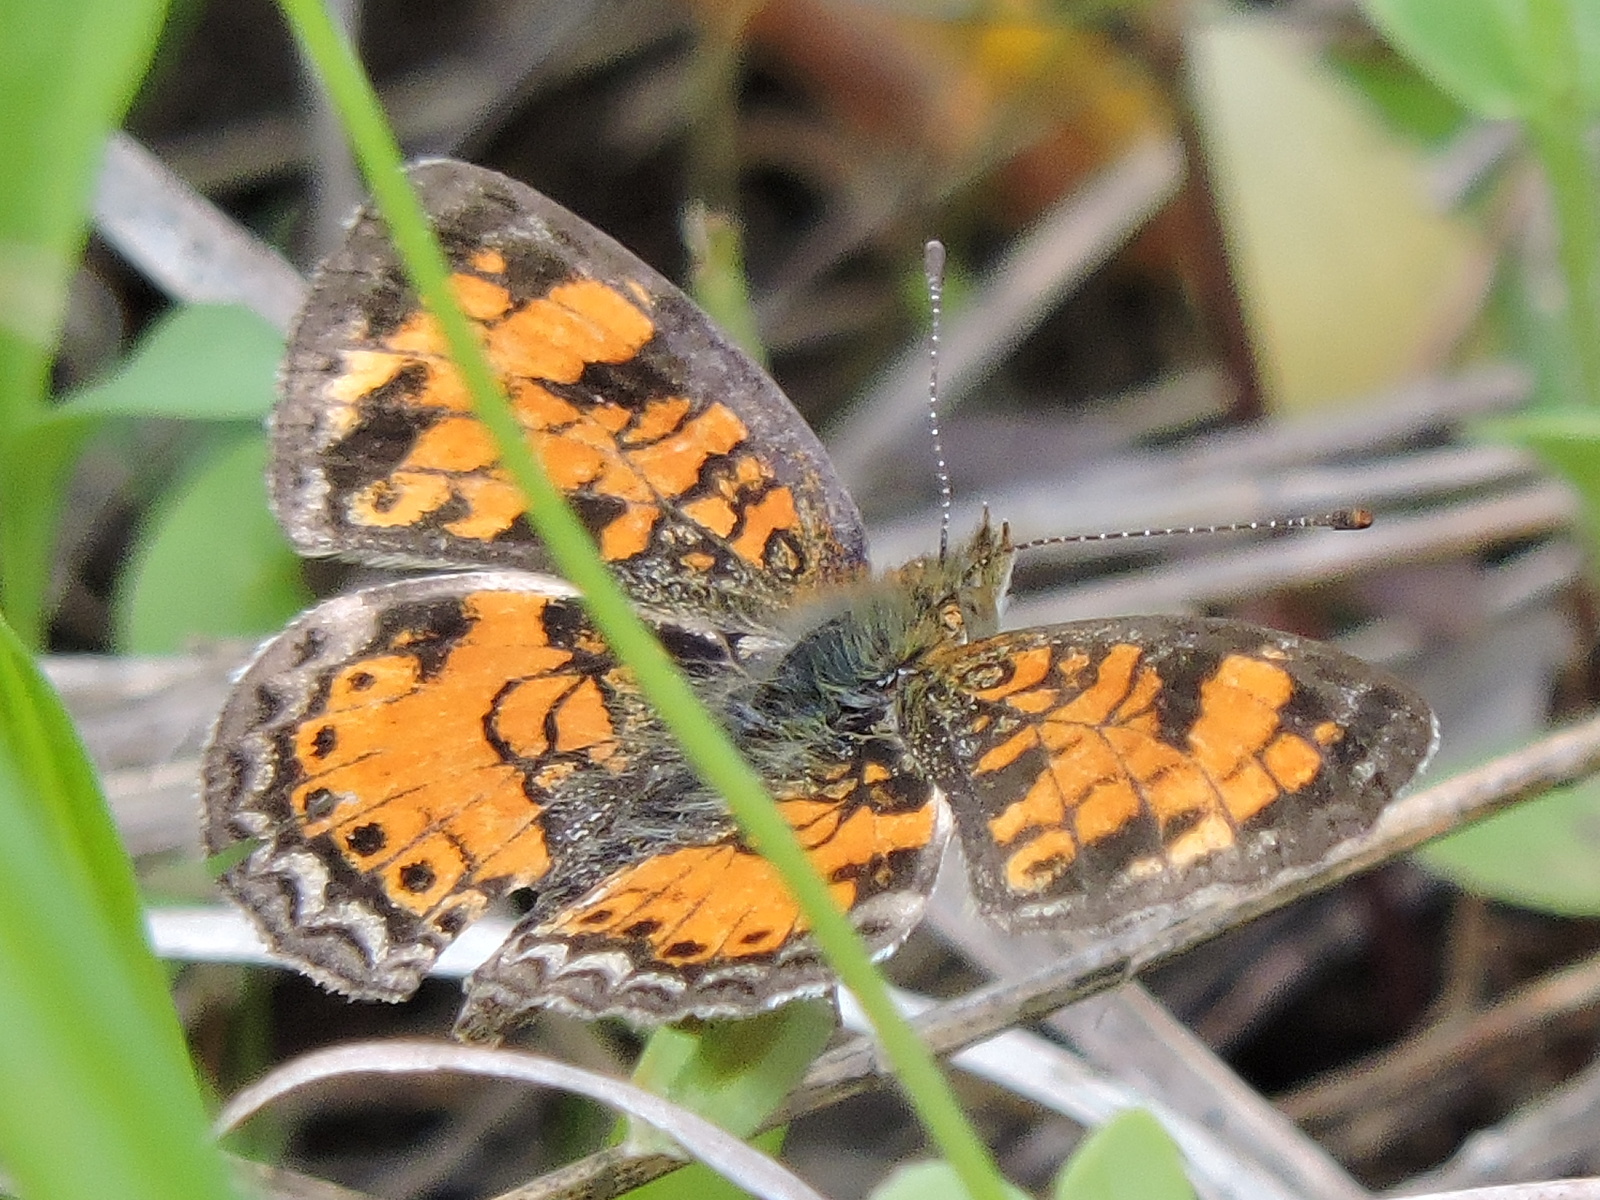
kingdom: Animalia
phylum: Arthropoda
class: Insecta
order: Lepidoptera
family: Nymphalidae
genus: Phyciodes
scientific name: Phyciodes tharos
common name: Pearl crescent
